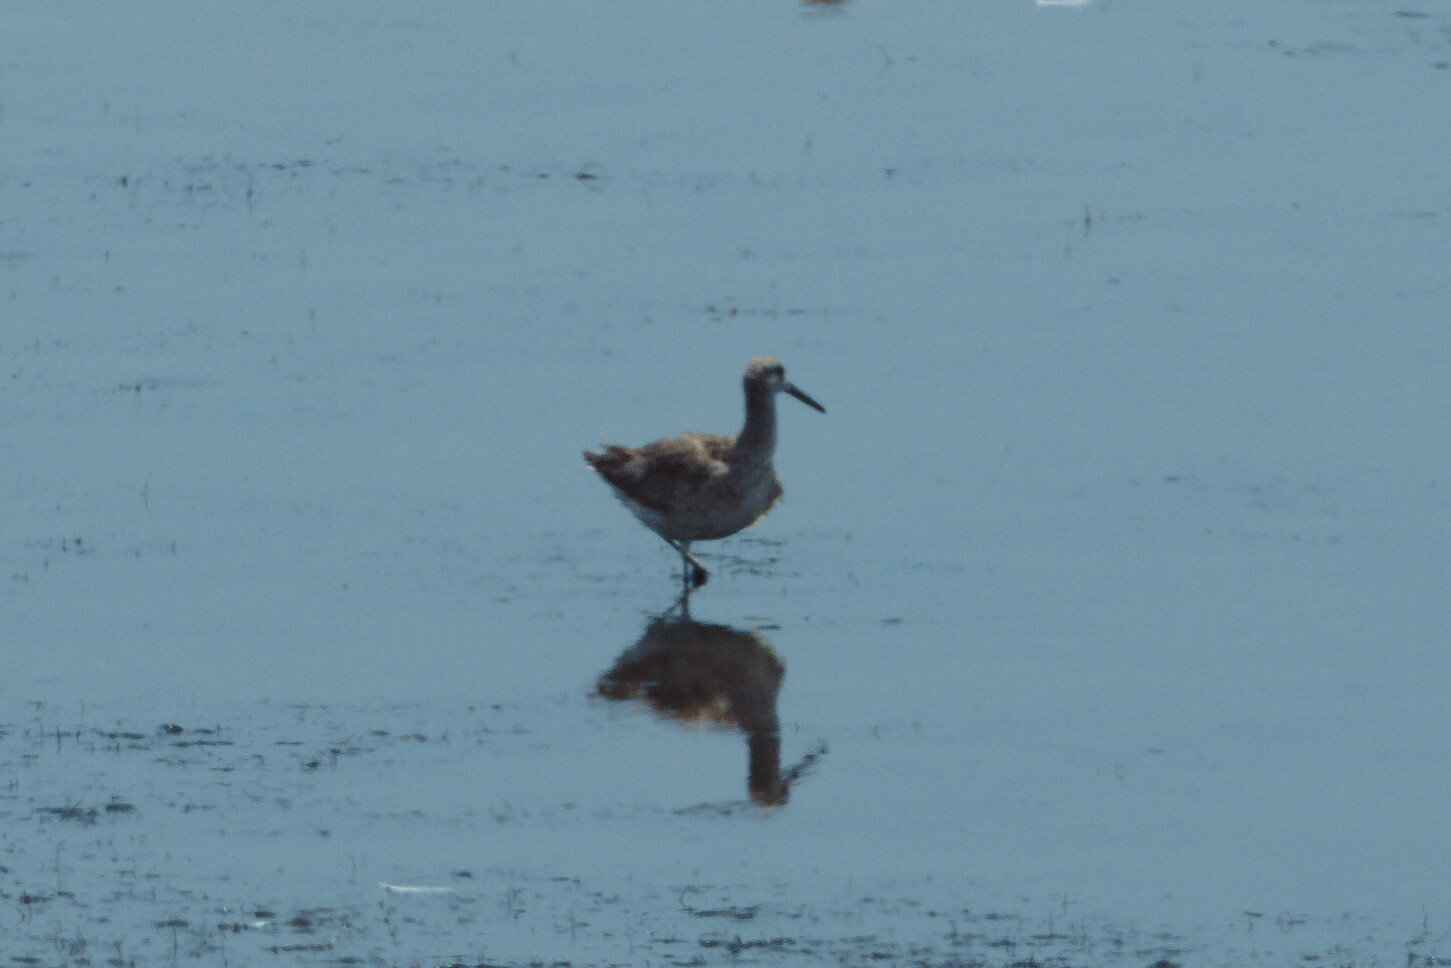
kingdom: Animalia
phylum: Chordata
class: Aves
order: Charadriiformes
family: Scolopacidae
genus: Tringa
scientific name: Tringa semipalmata
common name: Willet
